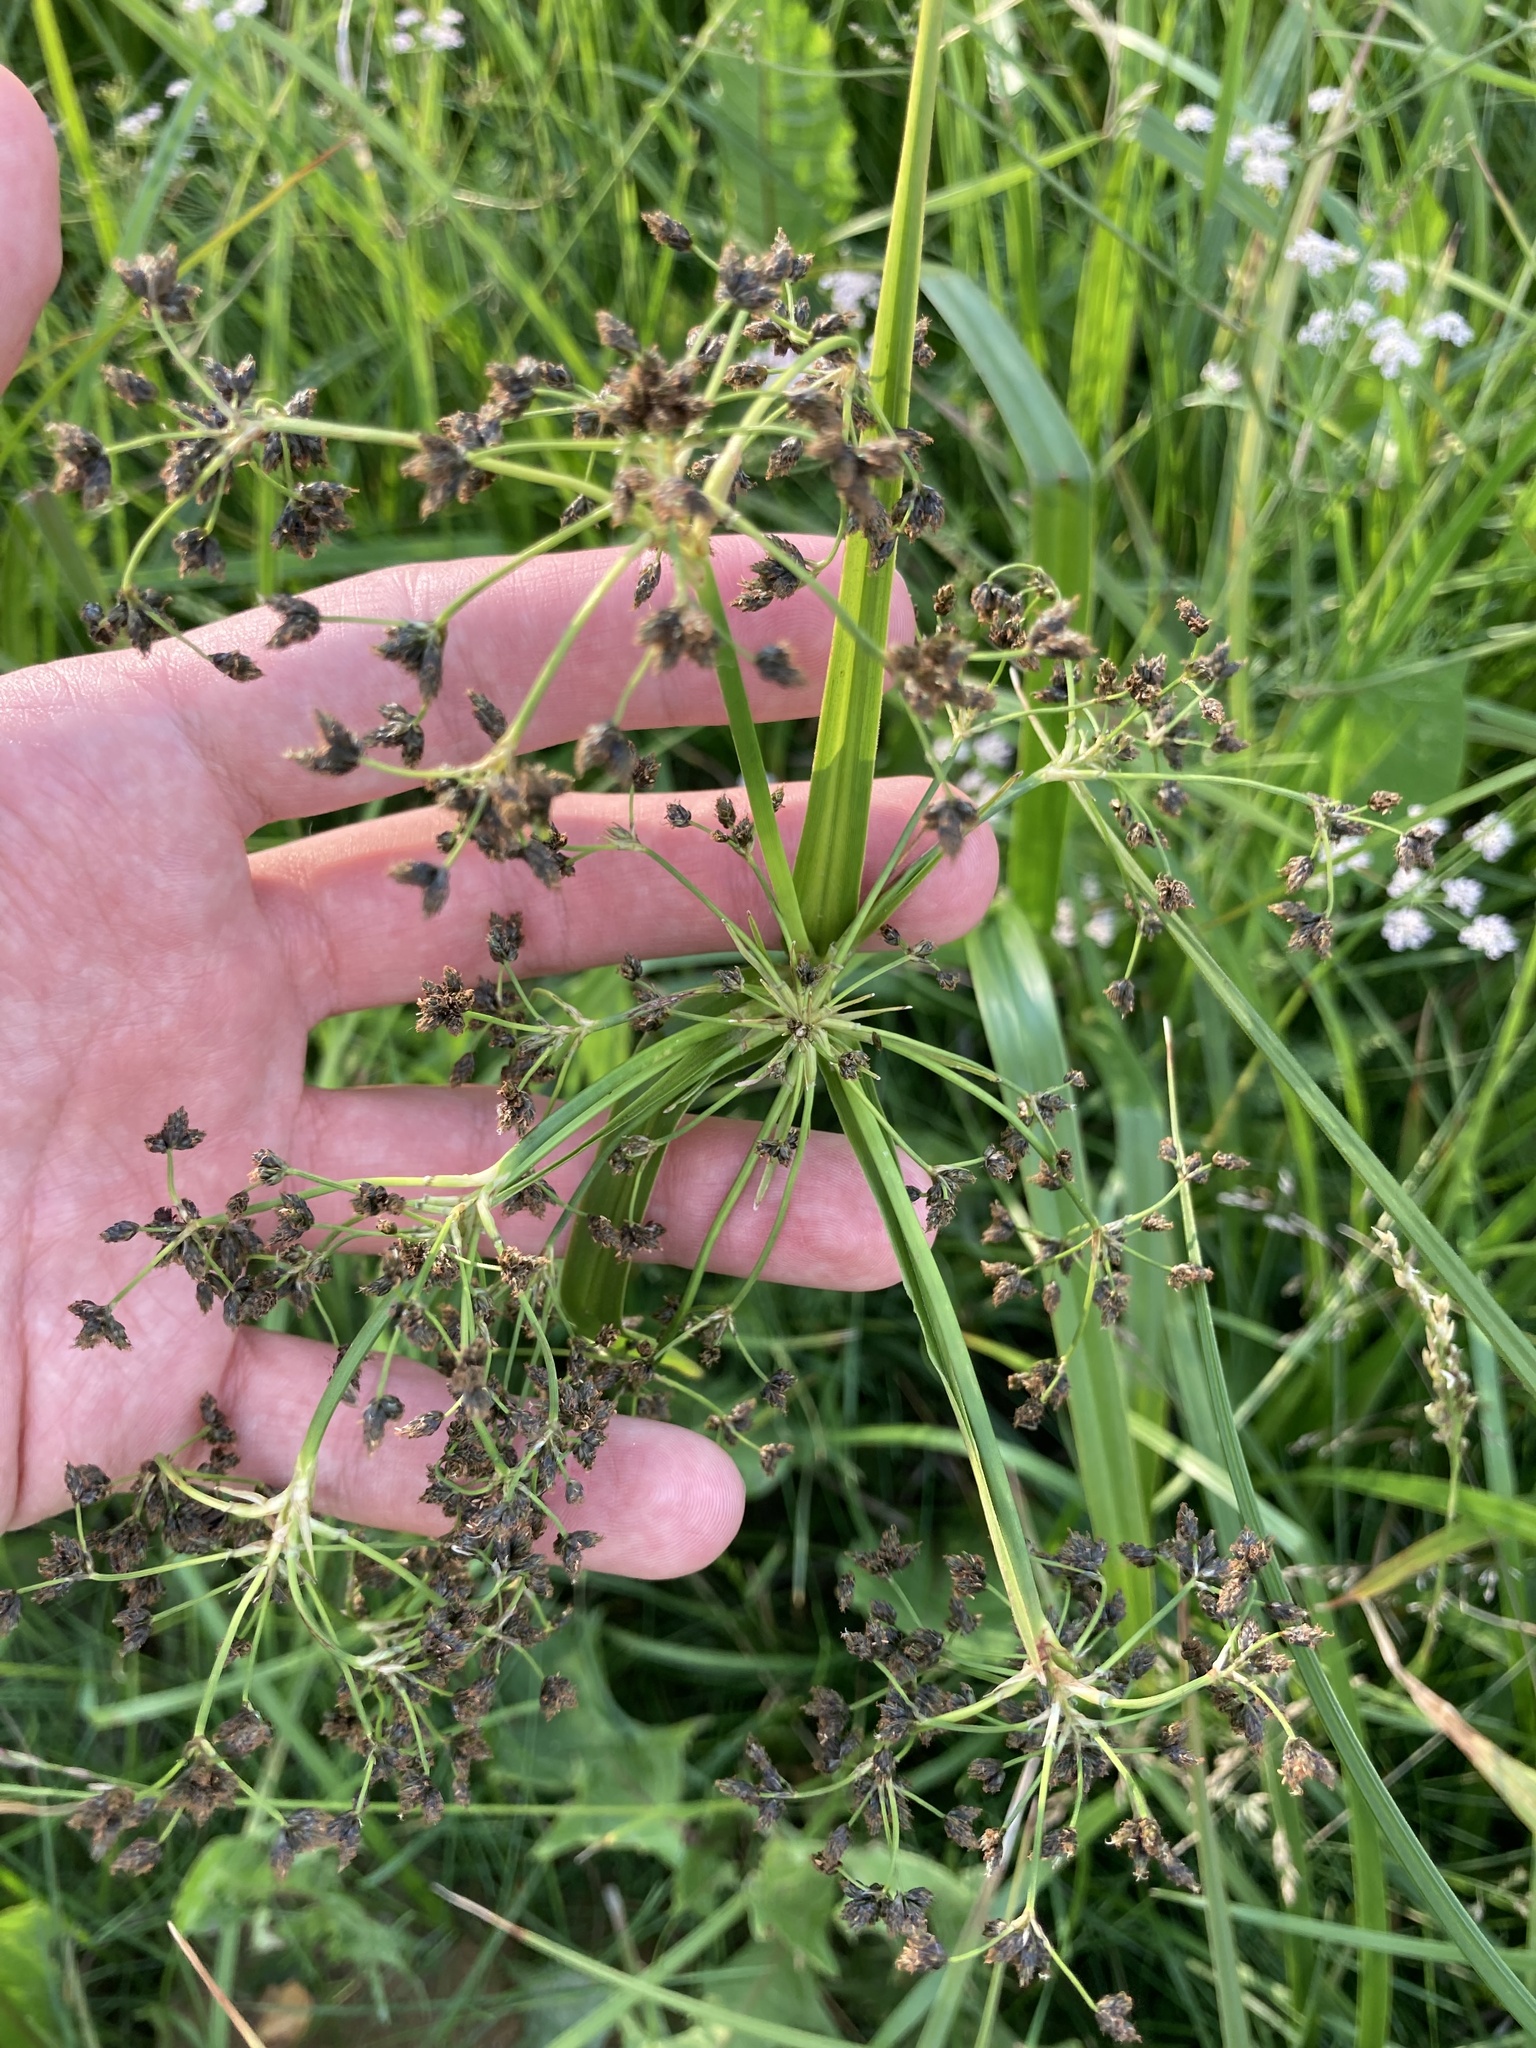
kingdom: Plantae
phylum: Tracheophyta
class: Liliopsida
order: Poales
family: Cyperaceae
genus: Scirpus
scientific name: Scirpus sylvaticus
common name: Wood club-rush
